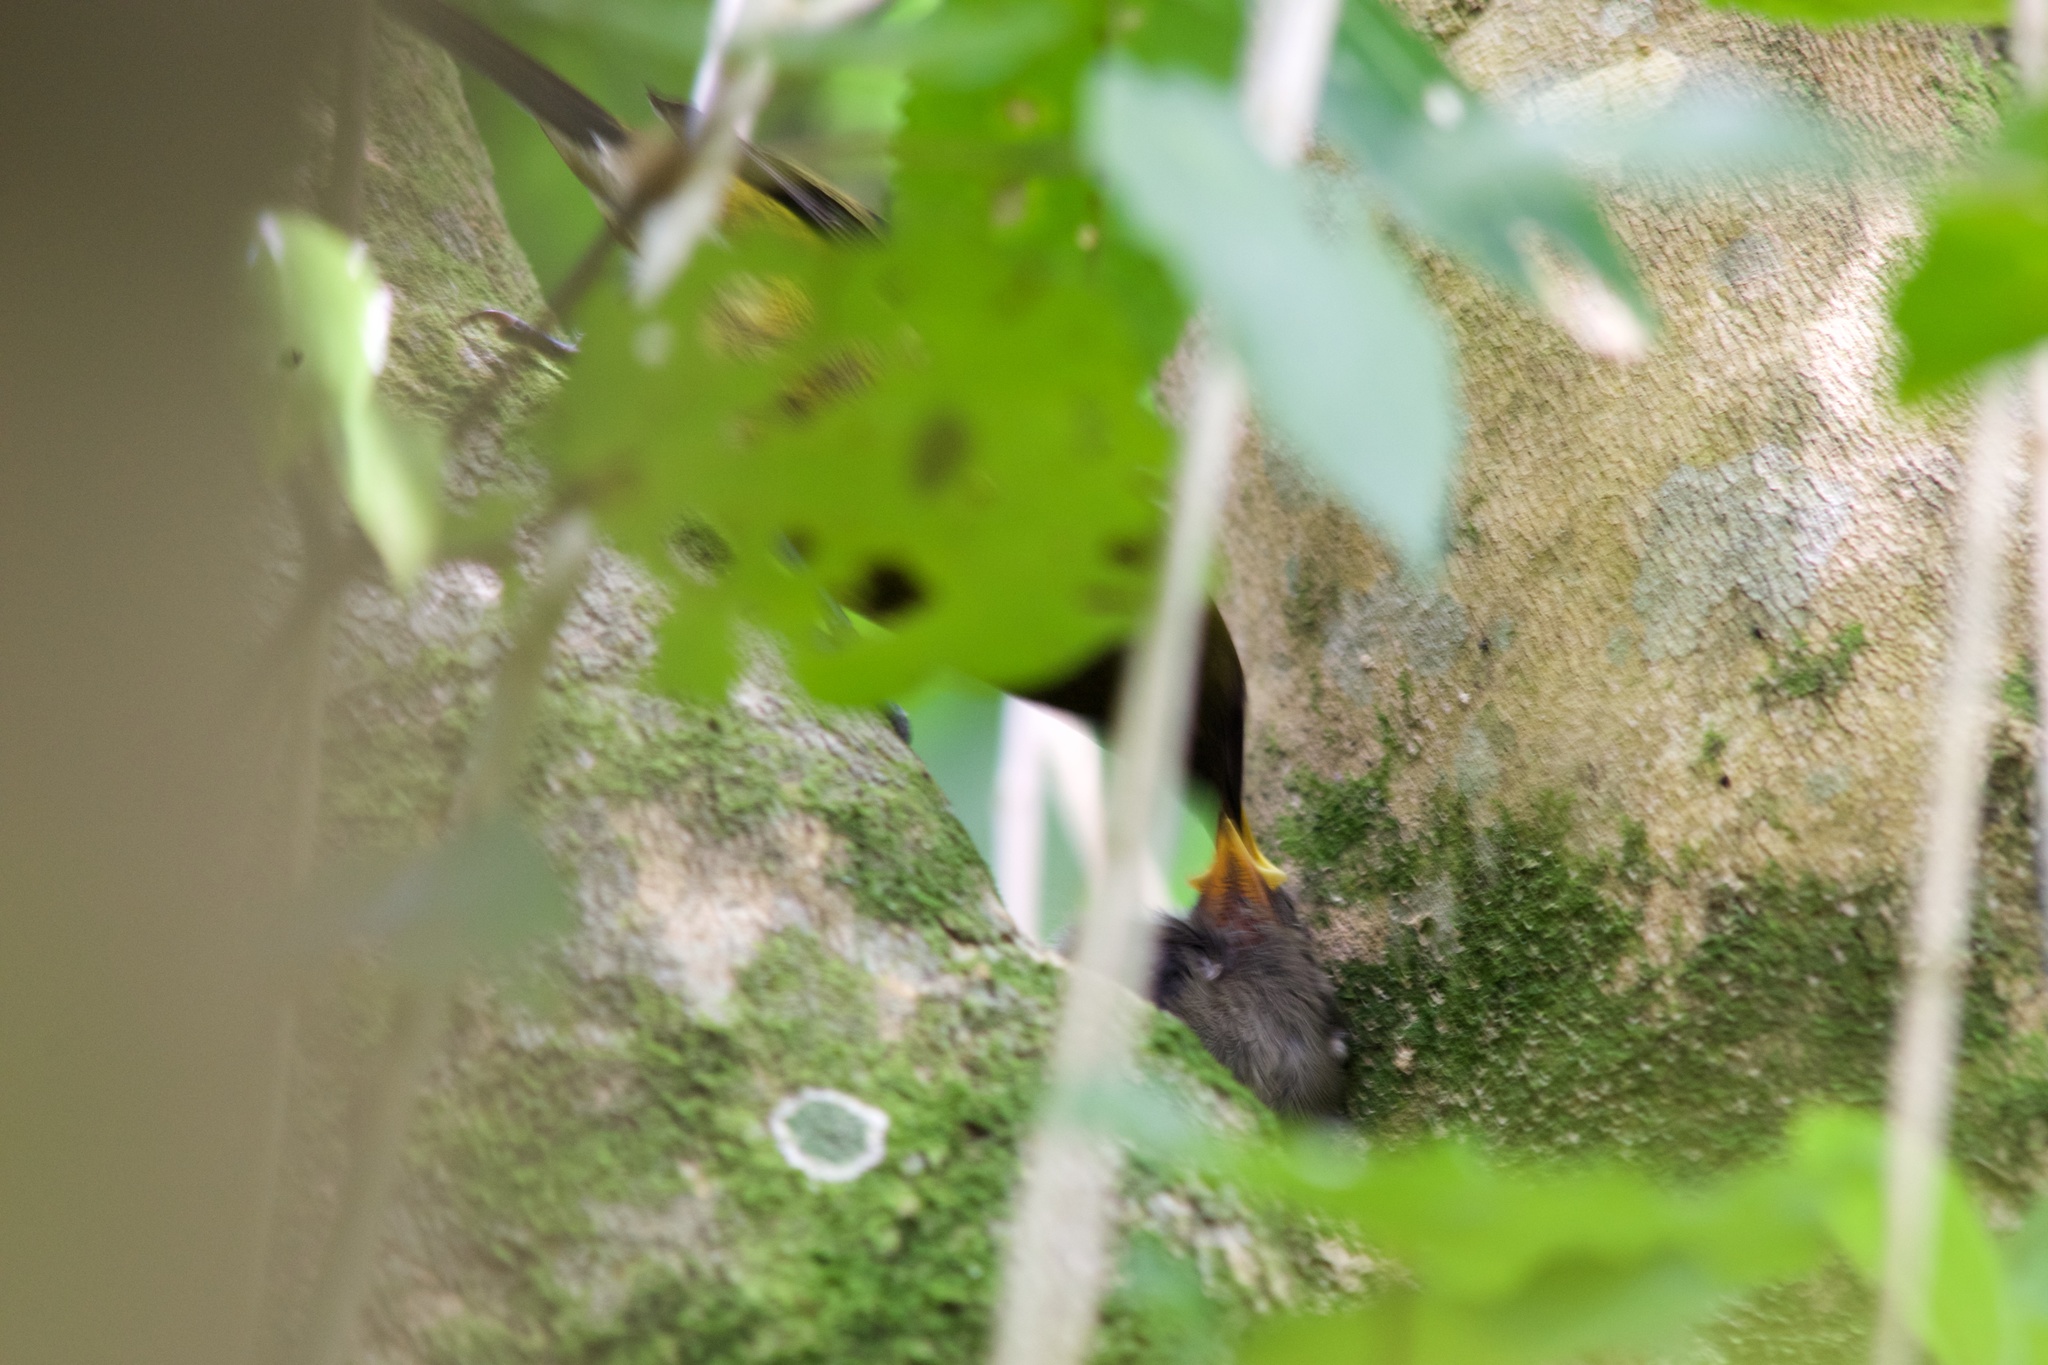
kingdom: Animalia
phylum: Chordata
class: Aves
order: Passeriformes
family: Meliphagidae
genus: Anthornis
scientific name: Anthornis melanura
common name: New zealand bellbird
